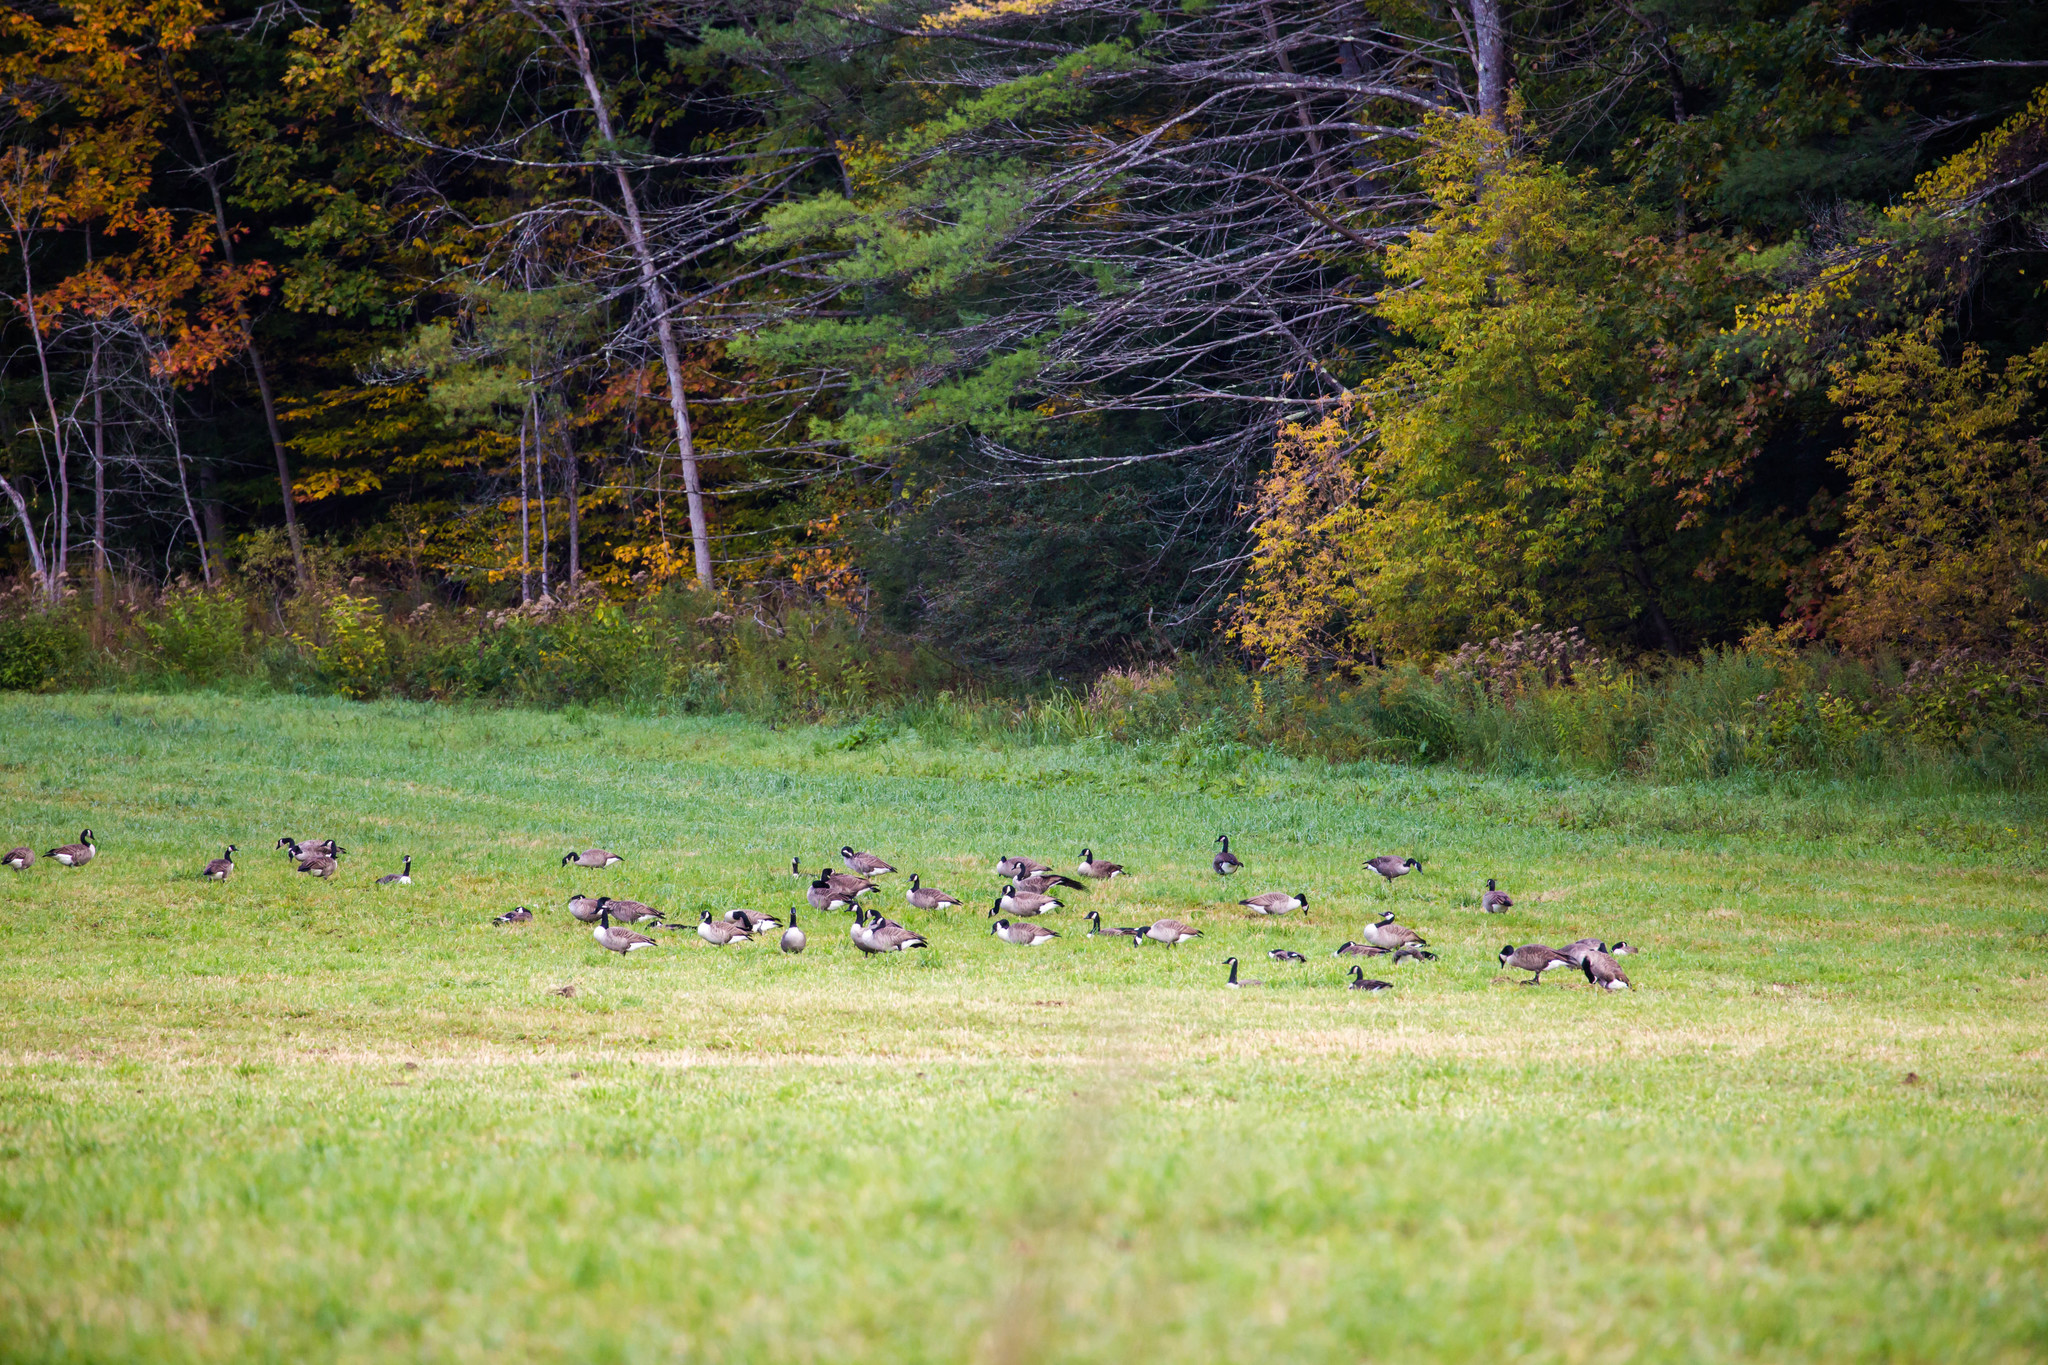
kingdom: Animalia
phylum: Chordata
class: Aves
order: Anseriformes
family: Anatidae
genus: Branta
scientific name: Branta canadensis
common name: Canada goose
